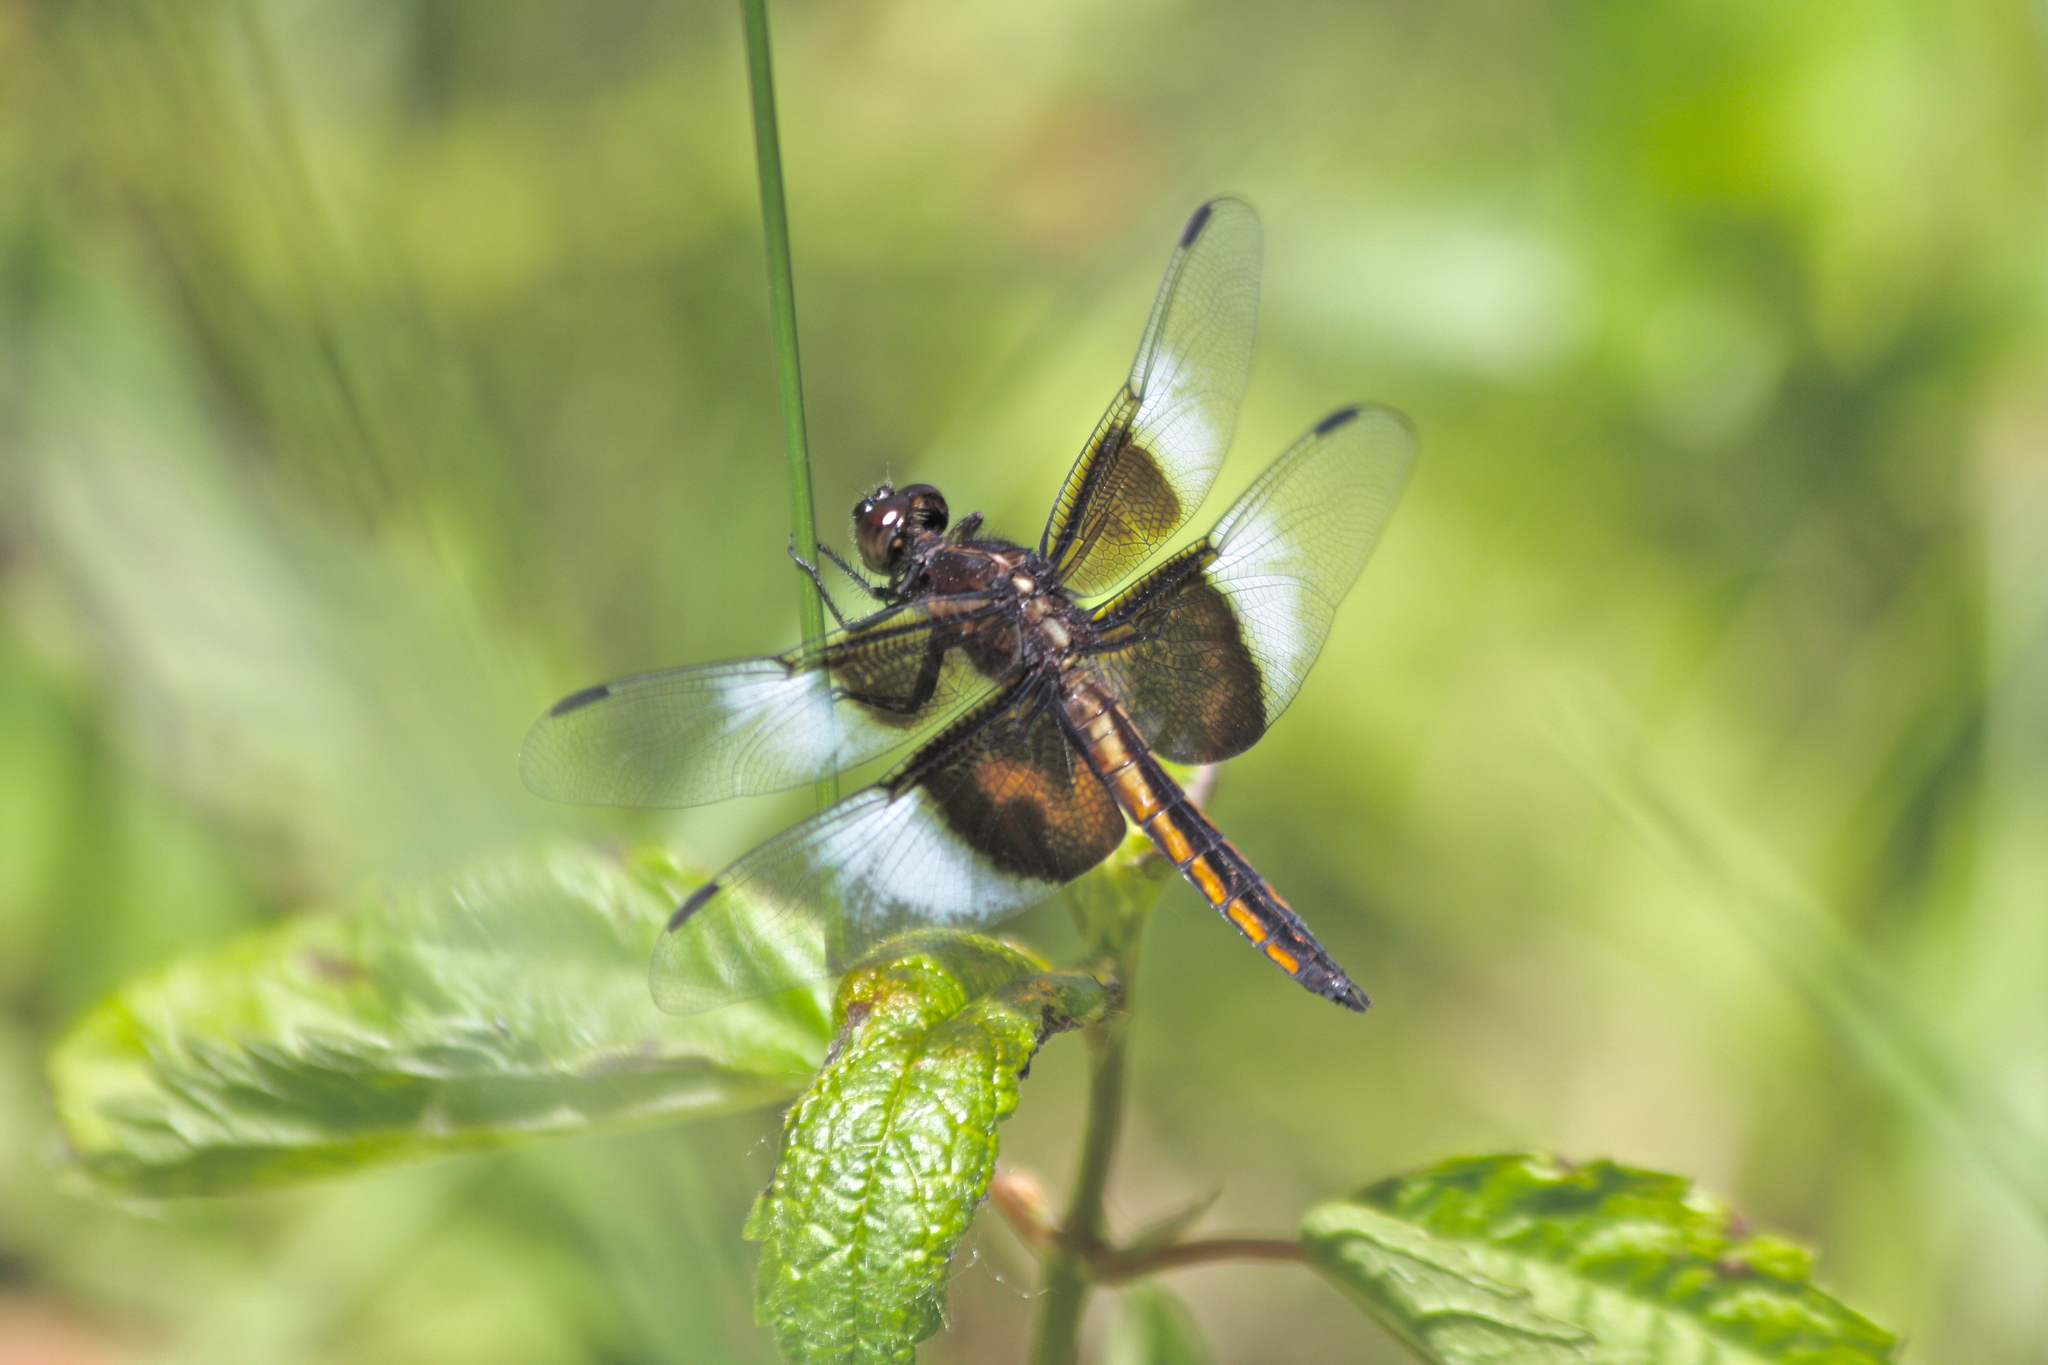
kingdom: Animalia
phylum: Arthropoda
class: Insecta
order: Odonata
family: Libellulidae
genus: Libellula
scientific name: Libellula luctuosa
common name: Widow skimmer
